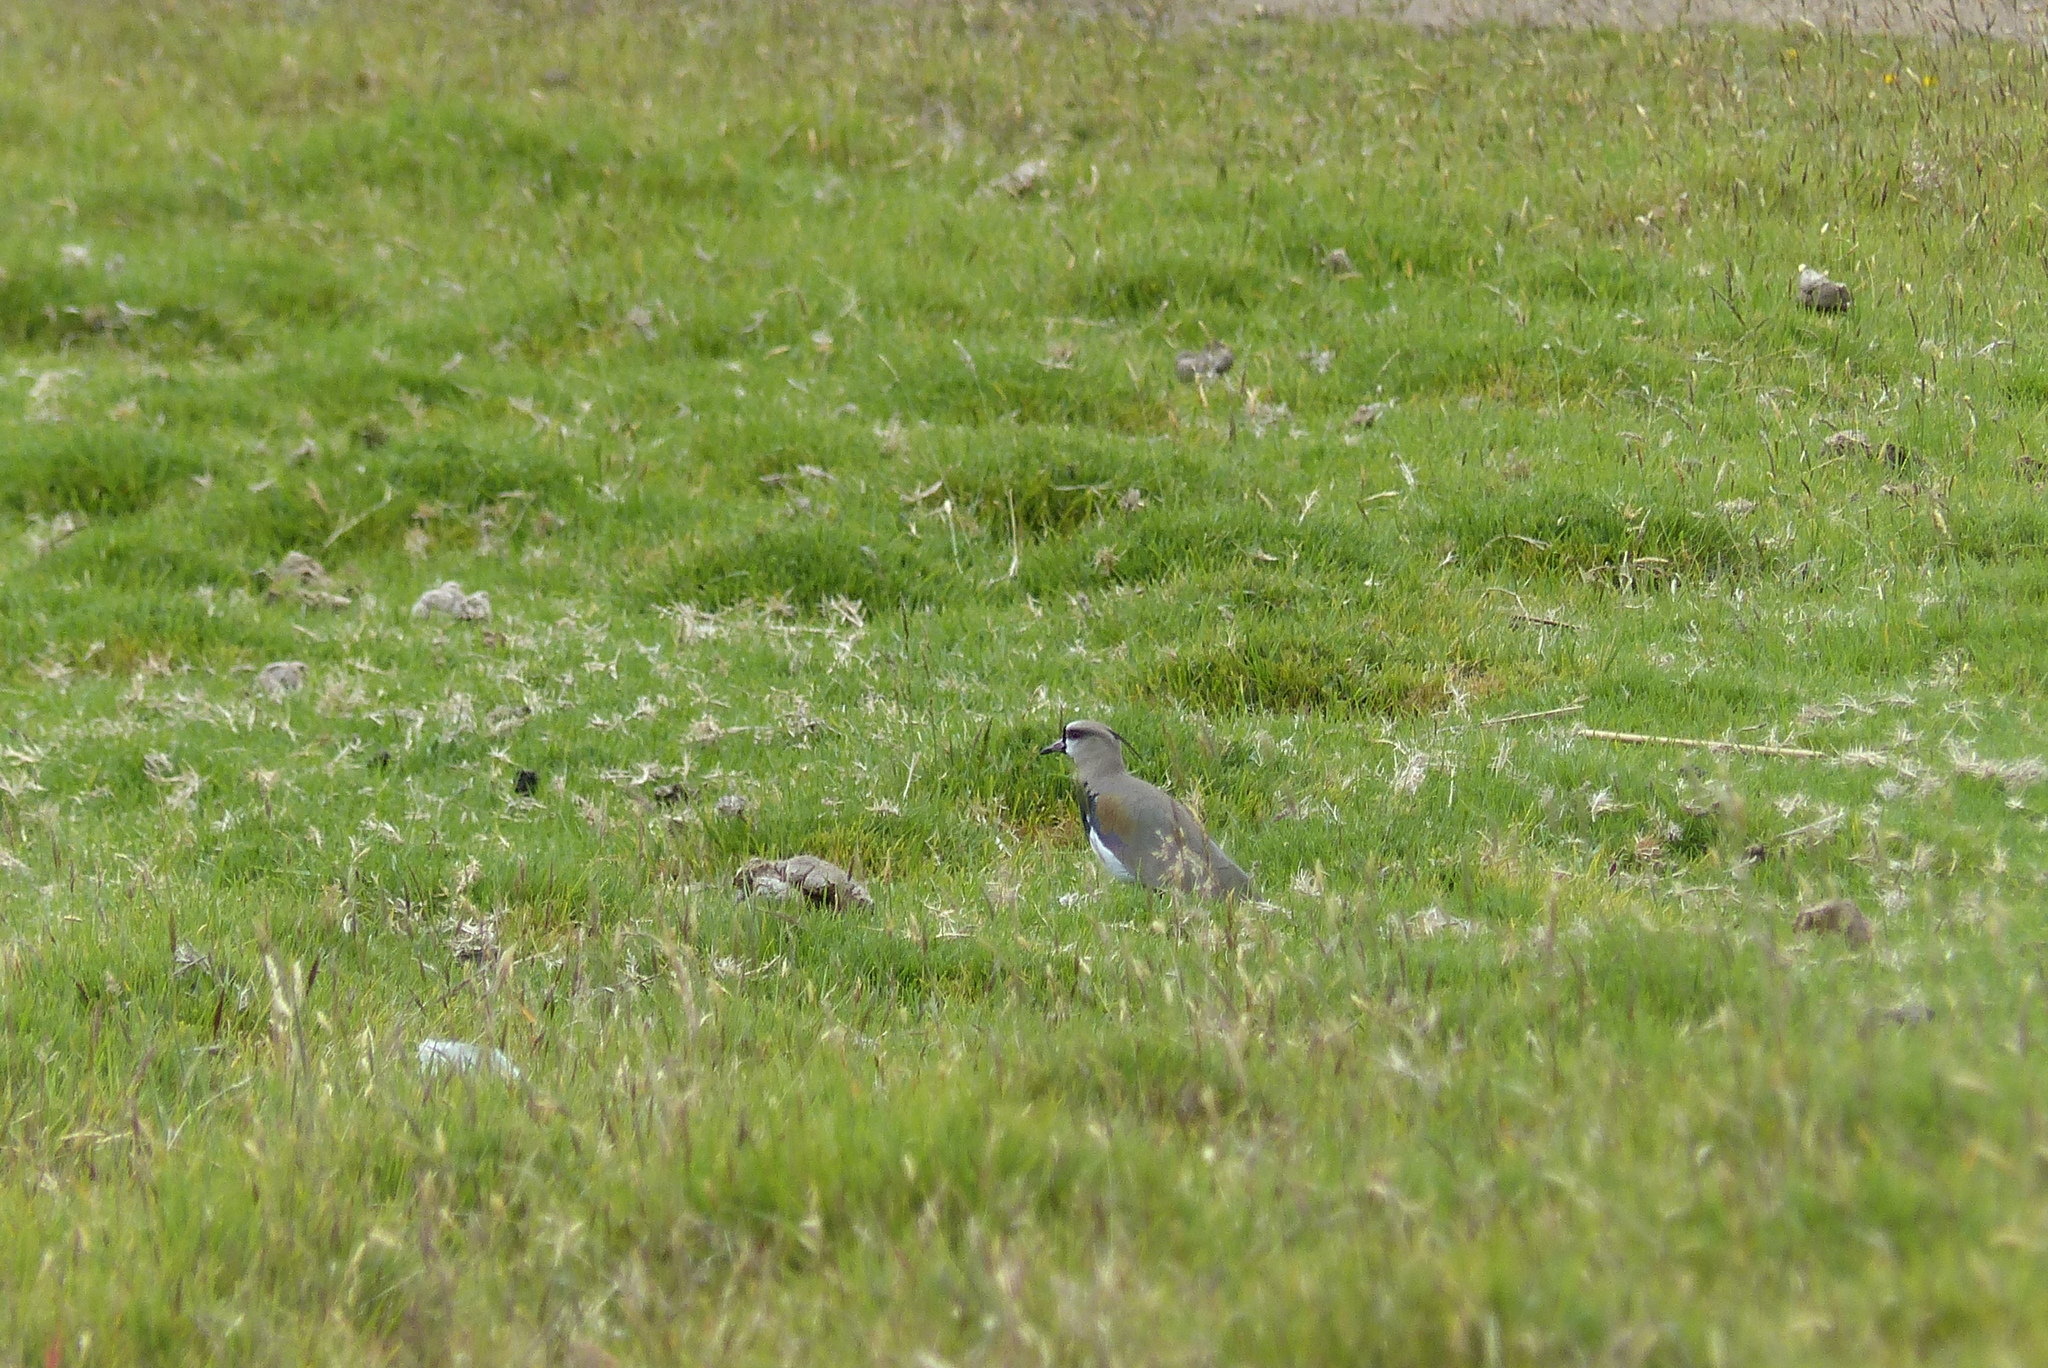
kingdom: Animalia
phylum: Chordata
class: Aves
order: Charadriiformes
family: Charadriidae
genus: Vanellus
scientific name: Vanellus chilensis
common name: Southern lapwing
